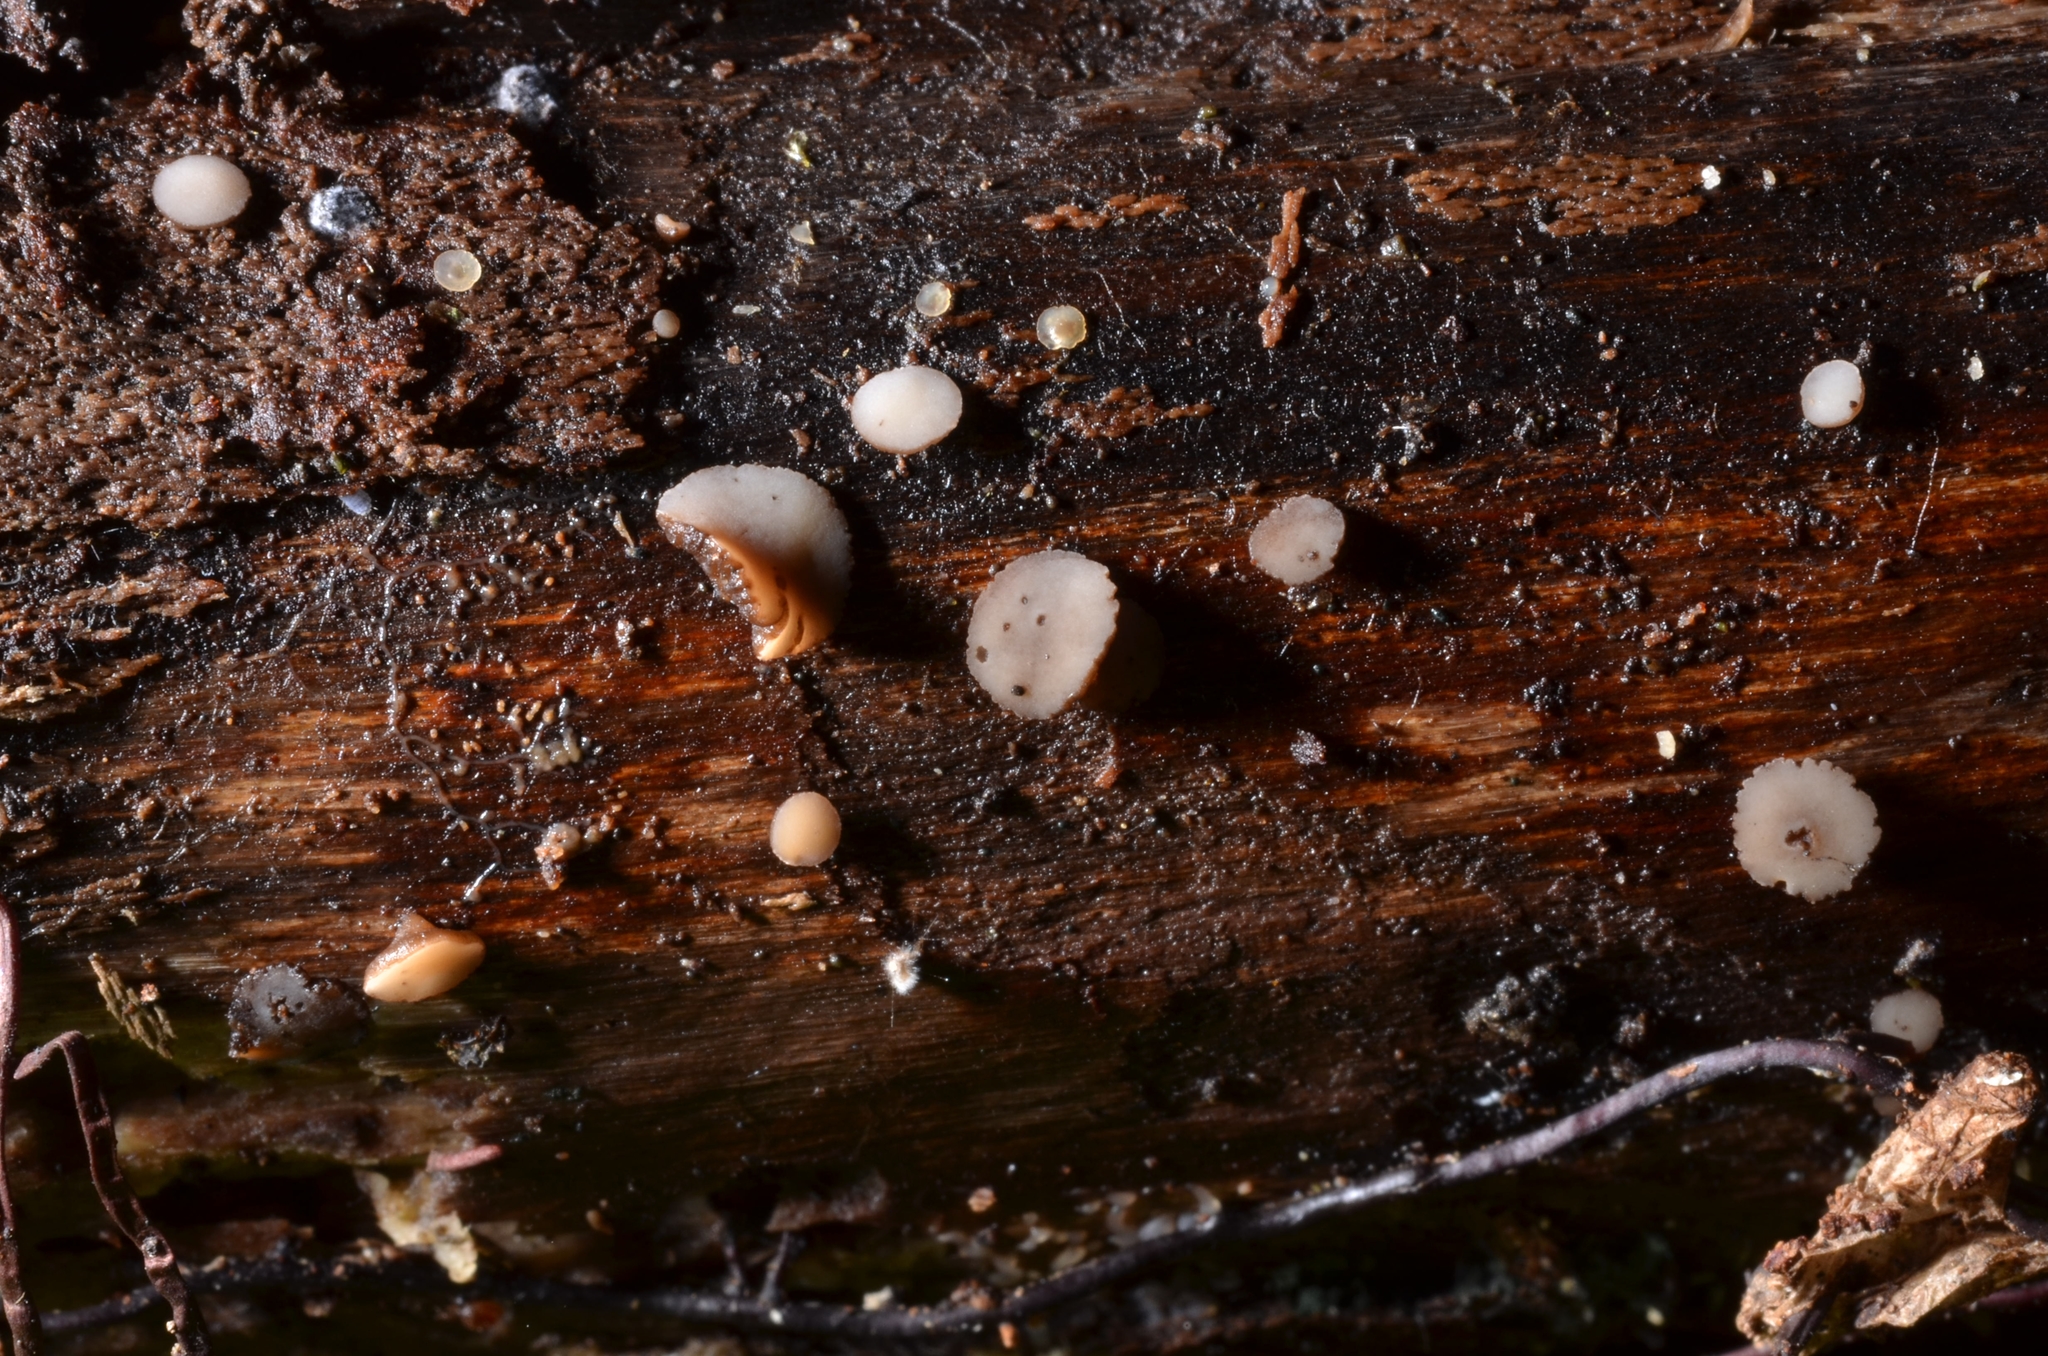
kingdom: Fungi
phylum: Ascomycota
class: Leotiomycetes
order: Helotiales
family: Ploettnerulaceae
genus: Pyrenopeziza
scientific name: Pyrenopeziza personata
